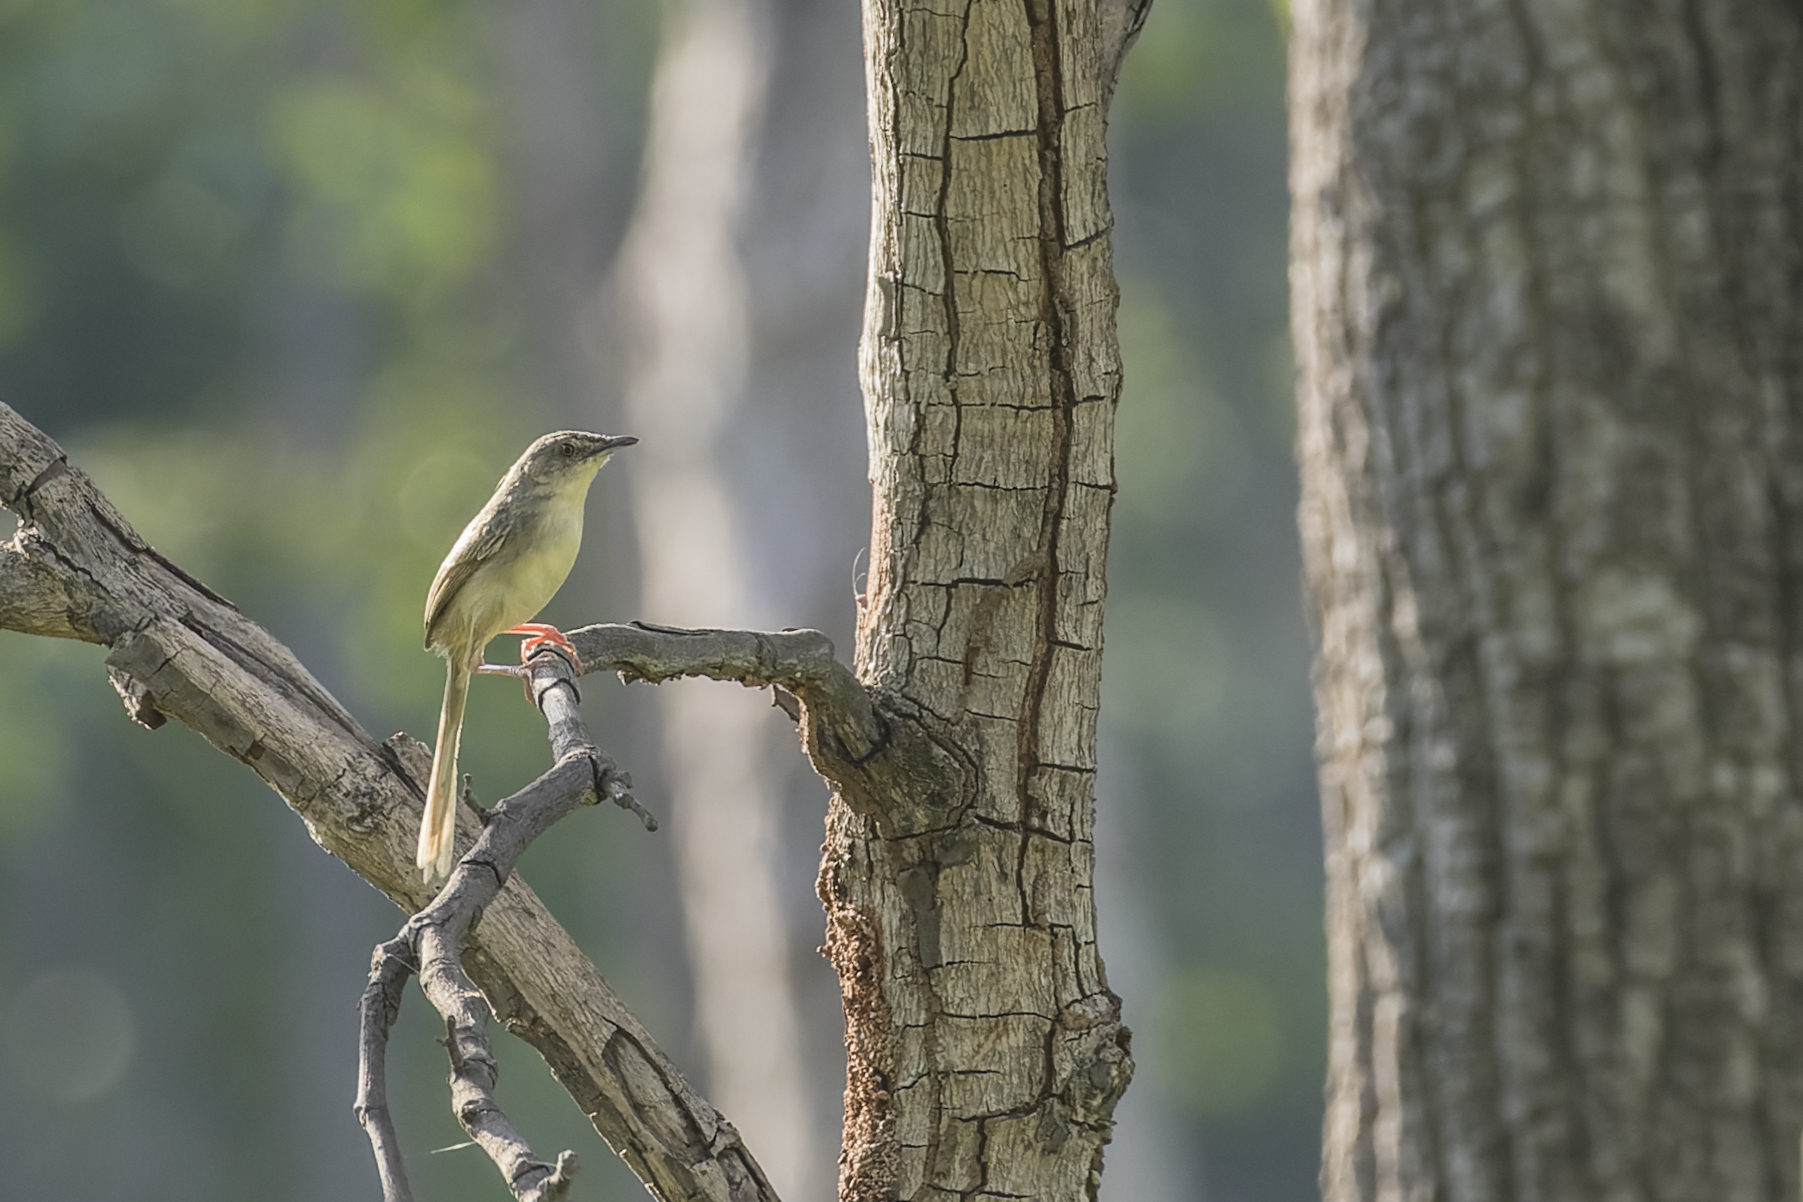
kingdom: Animalia
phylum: Chordata
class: Aves
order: Passeriformes
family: Cisticolidae
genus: Prinia
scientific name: Prinia polychroa
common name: Brown prinia
